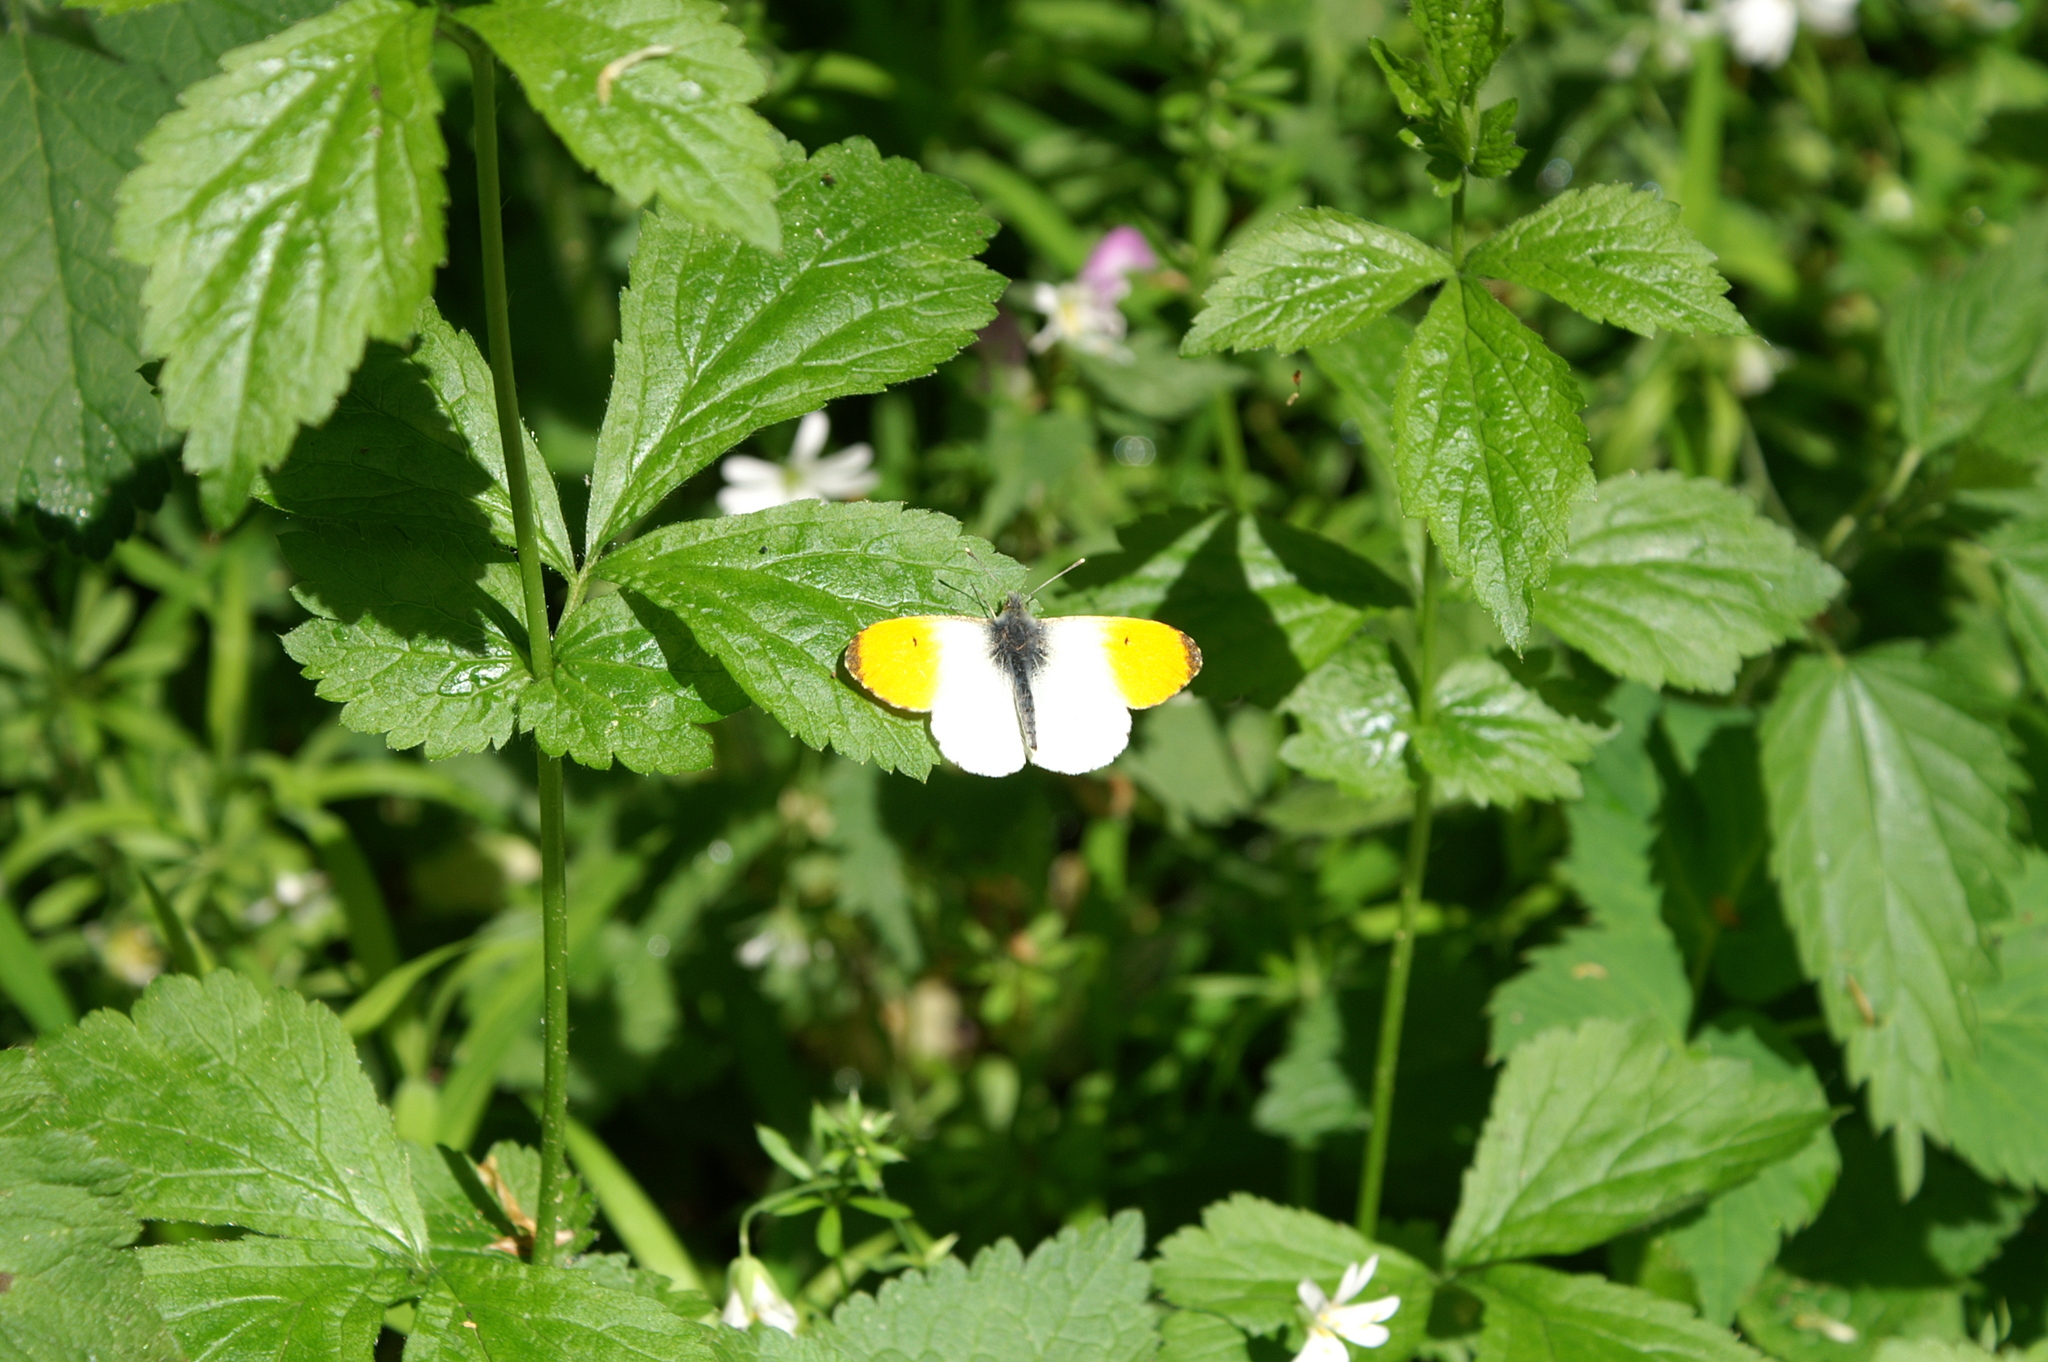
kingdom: Animalia
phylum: Arthropoda
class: Insecta
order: Lepidoptera
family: Pieridae
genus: Anthocharis
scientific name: Anthocharis cardamines
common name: Orange-tip
